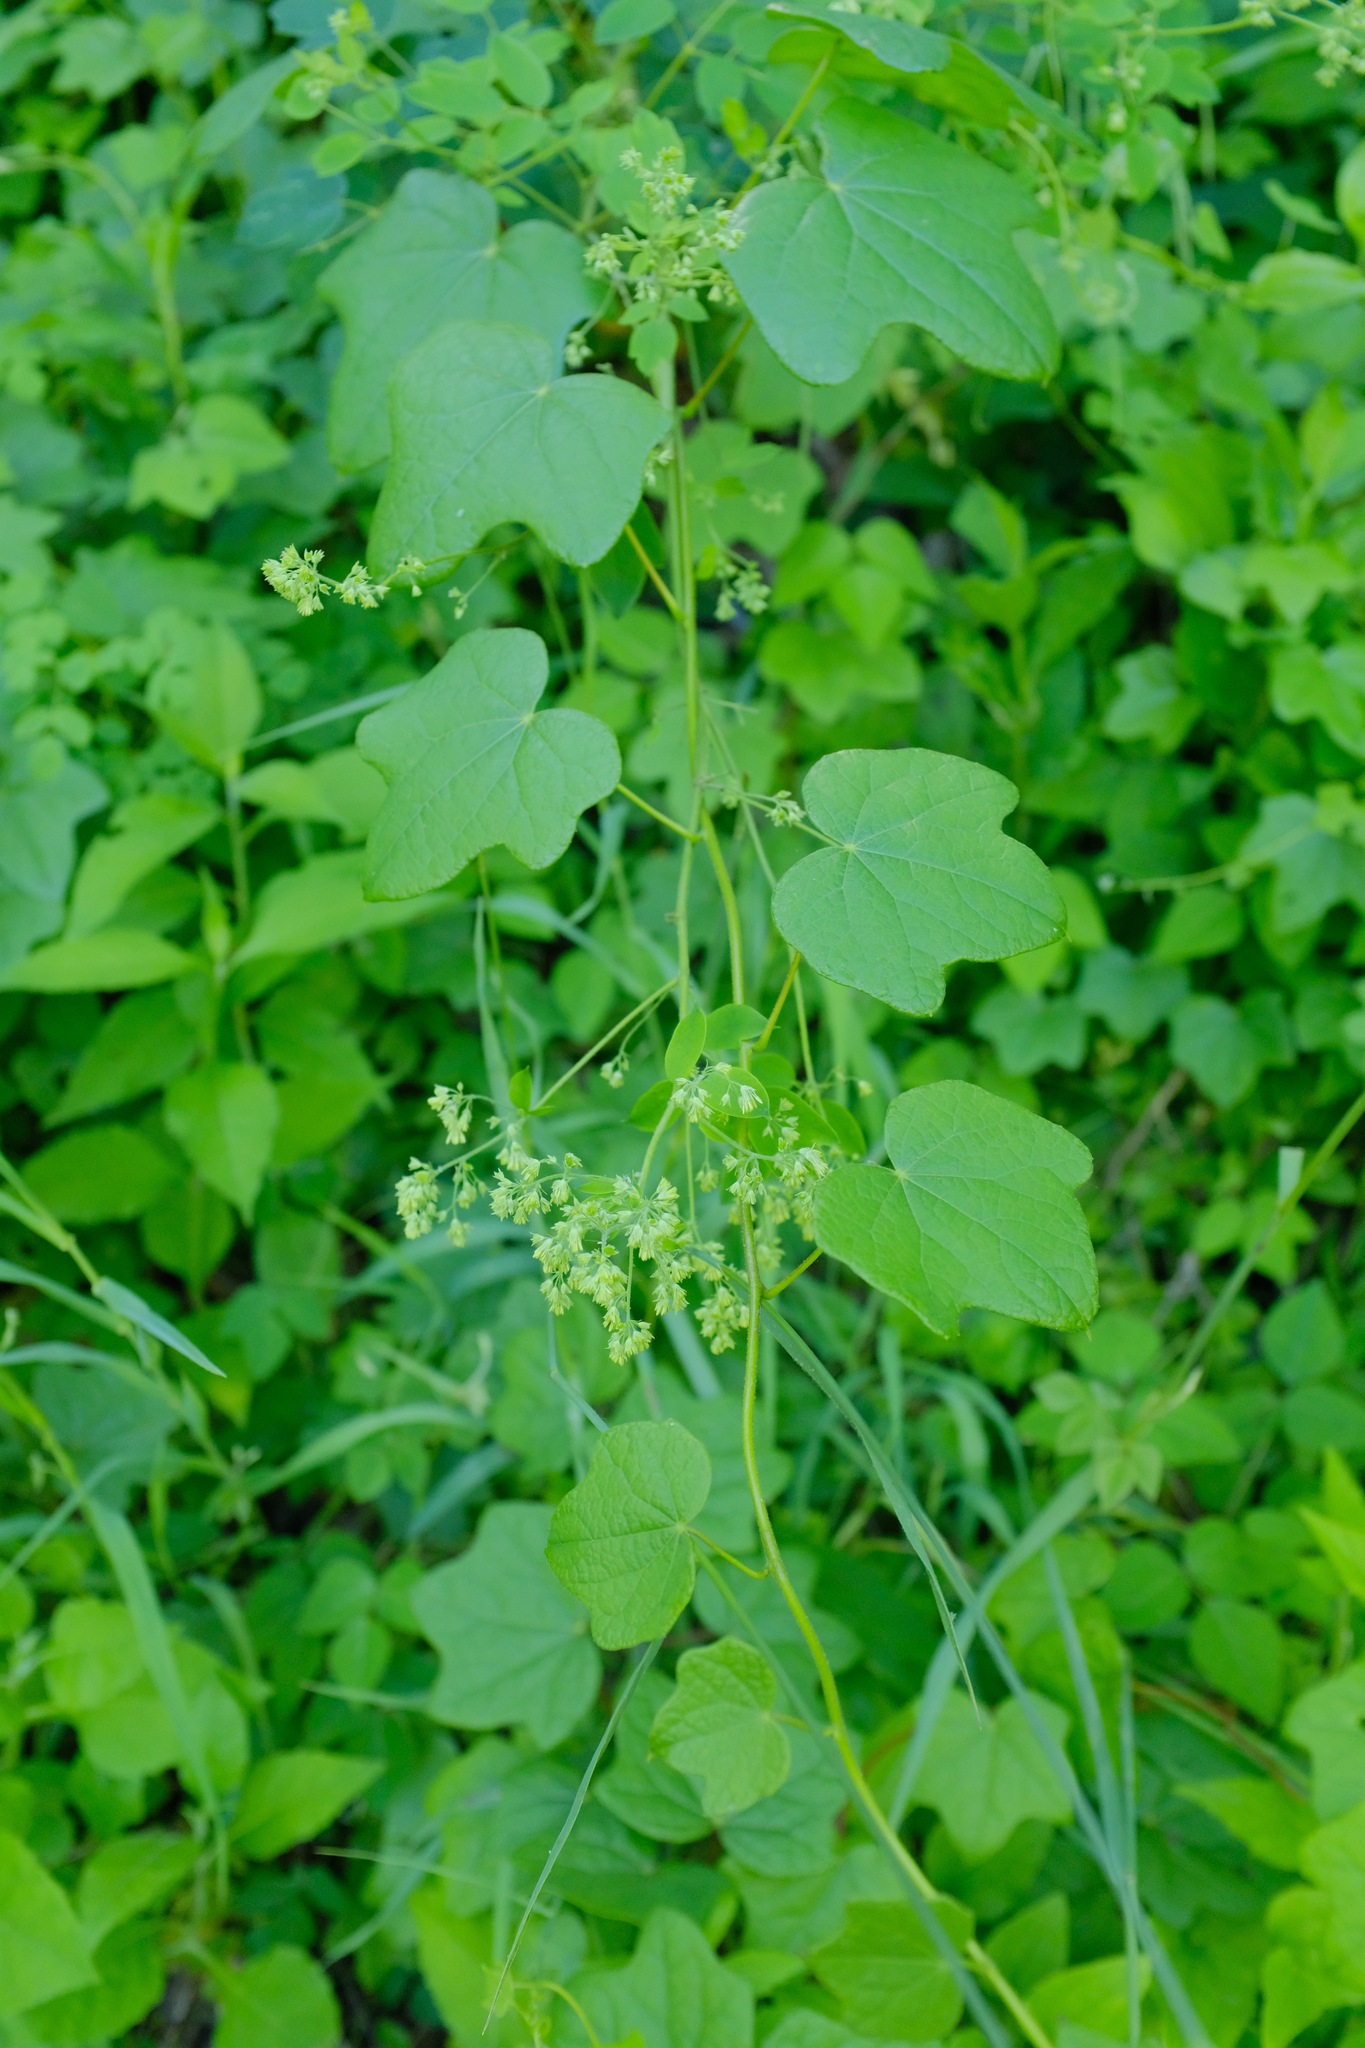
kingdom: Plantae
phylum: Tracheophyta
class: Magnoliopsida
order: Ranunculales
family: Menispermaceae
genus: Menispermum
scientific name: Menispermum canadense
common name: Moonseed
